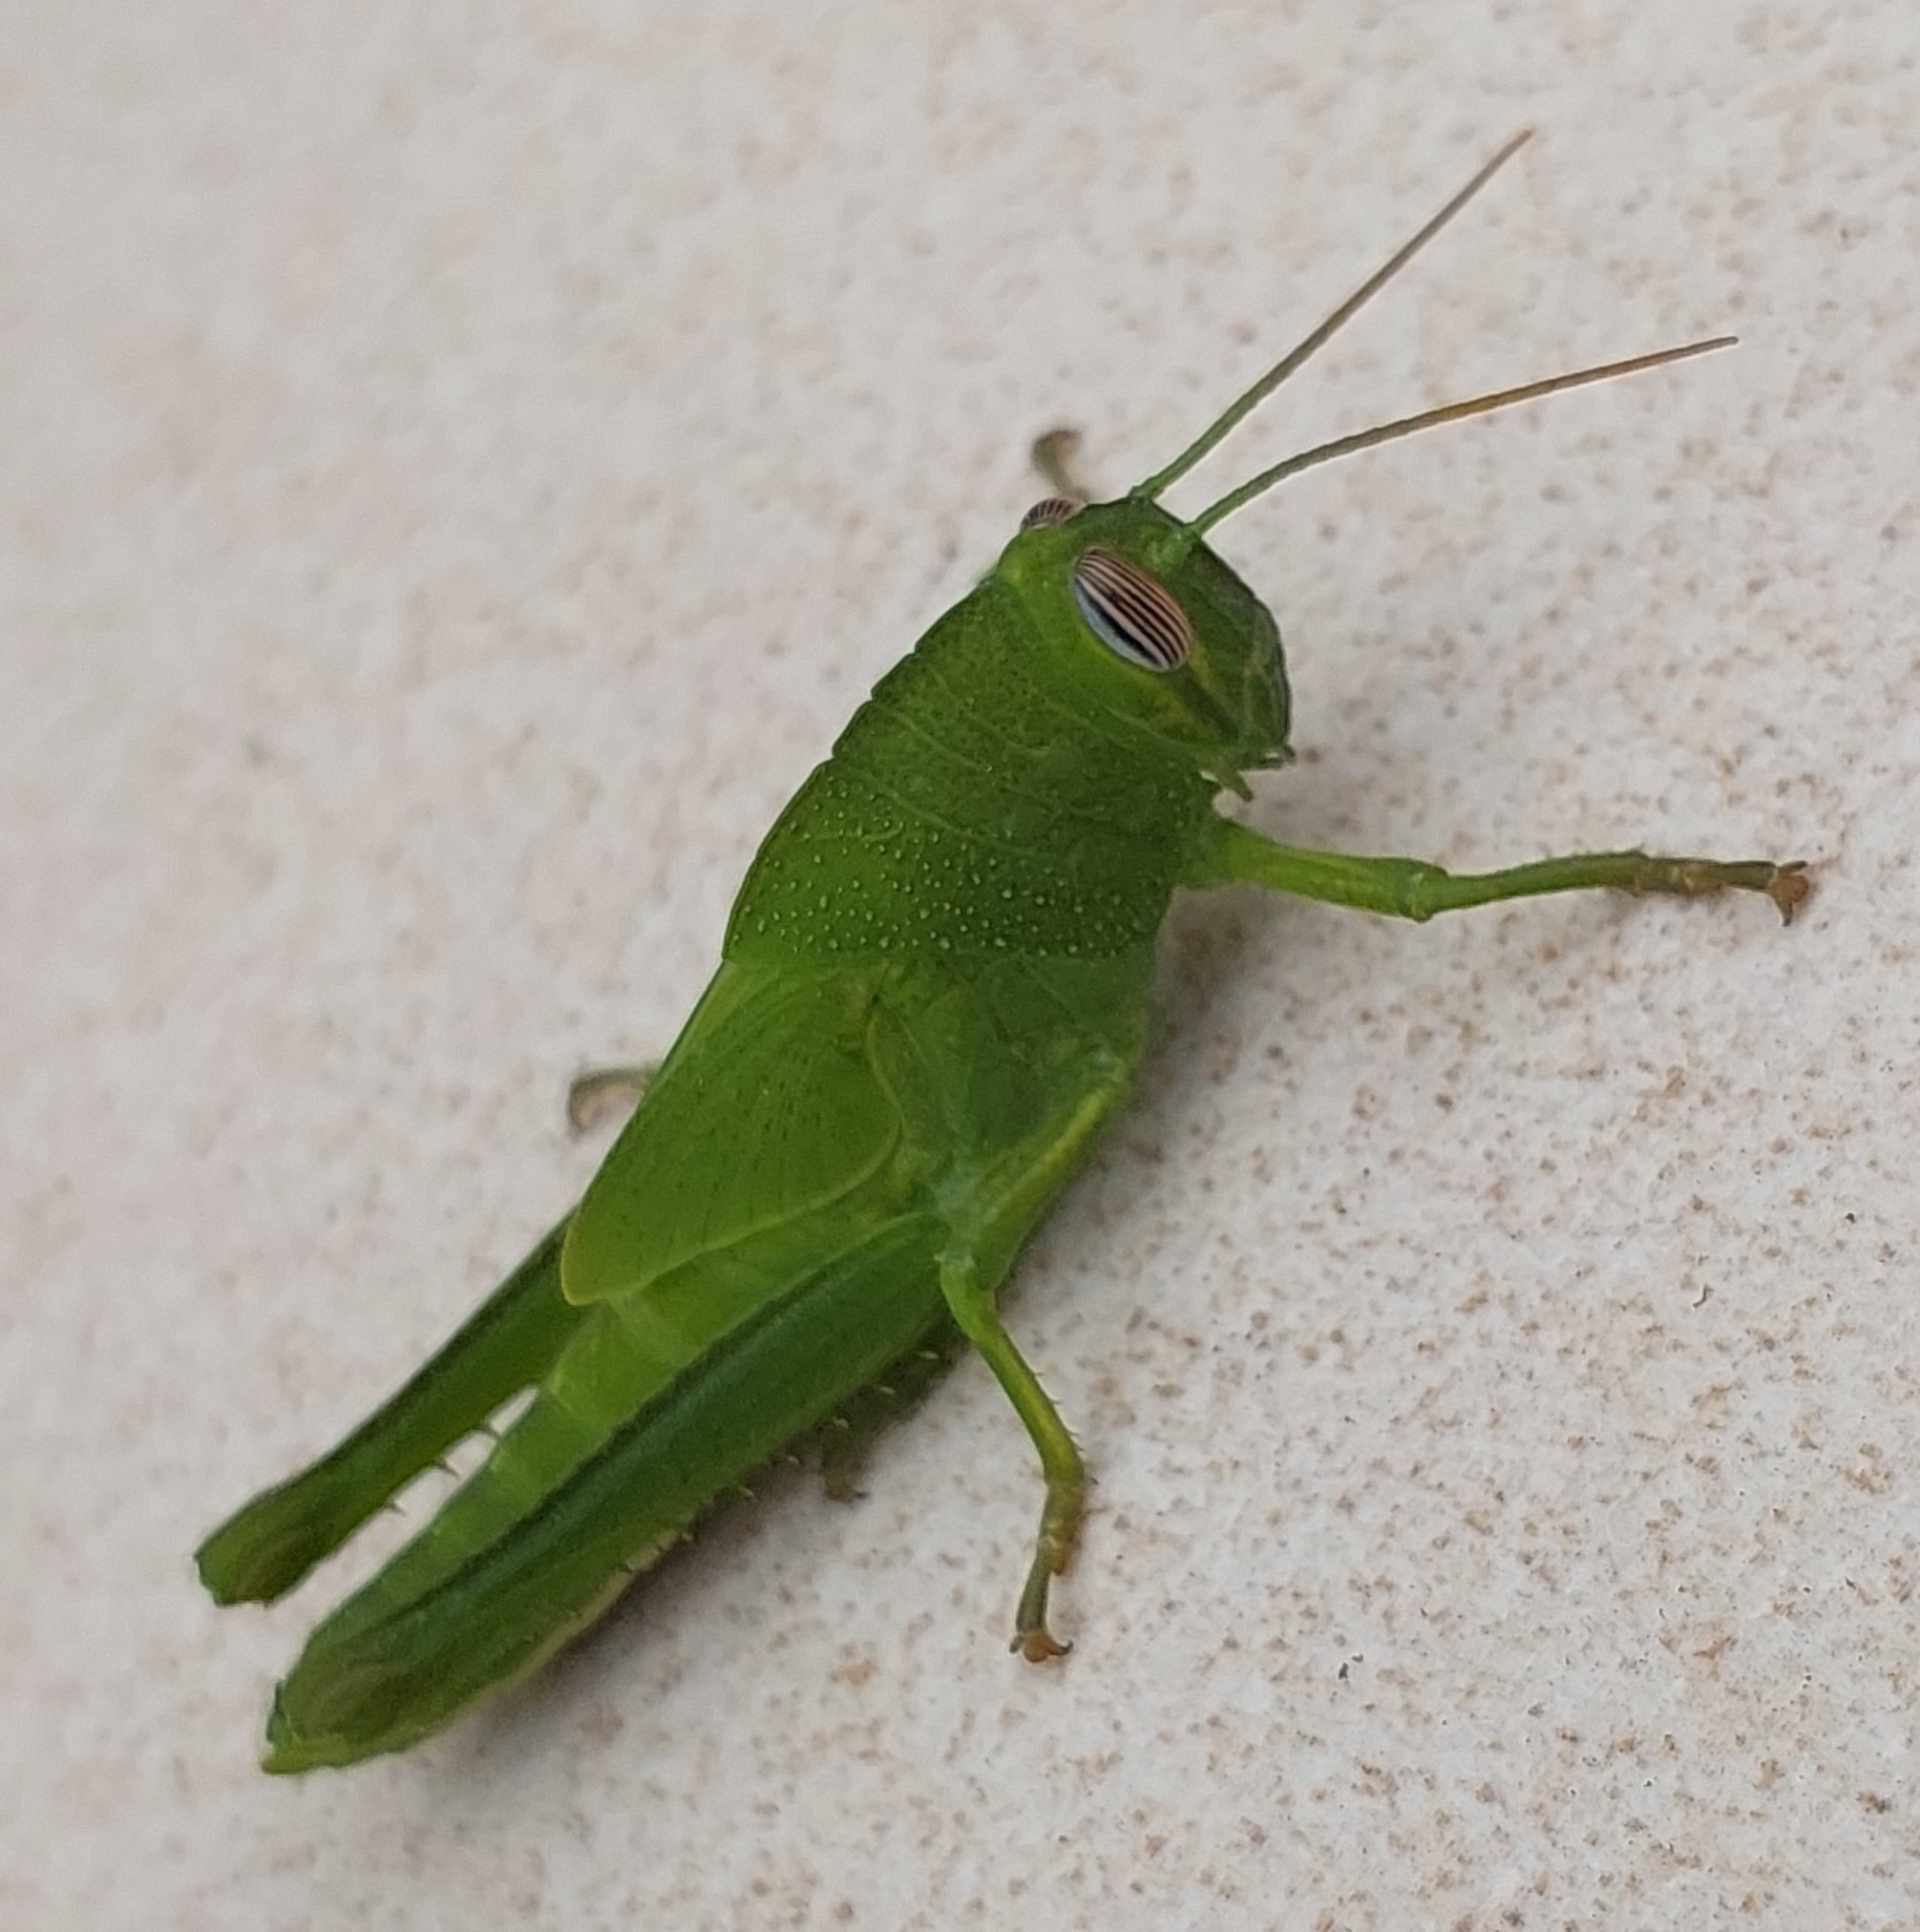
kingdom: Animalia
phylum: Arthropoda
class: Insecta
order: Orthoptera
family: Acrididae
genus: Anacridium
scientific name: Anacridium aegyptium
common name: Egyptian grasshopper
